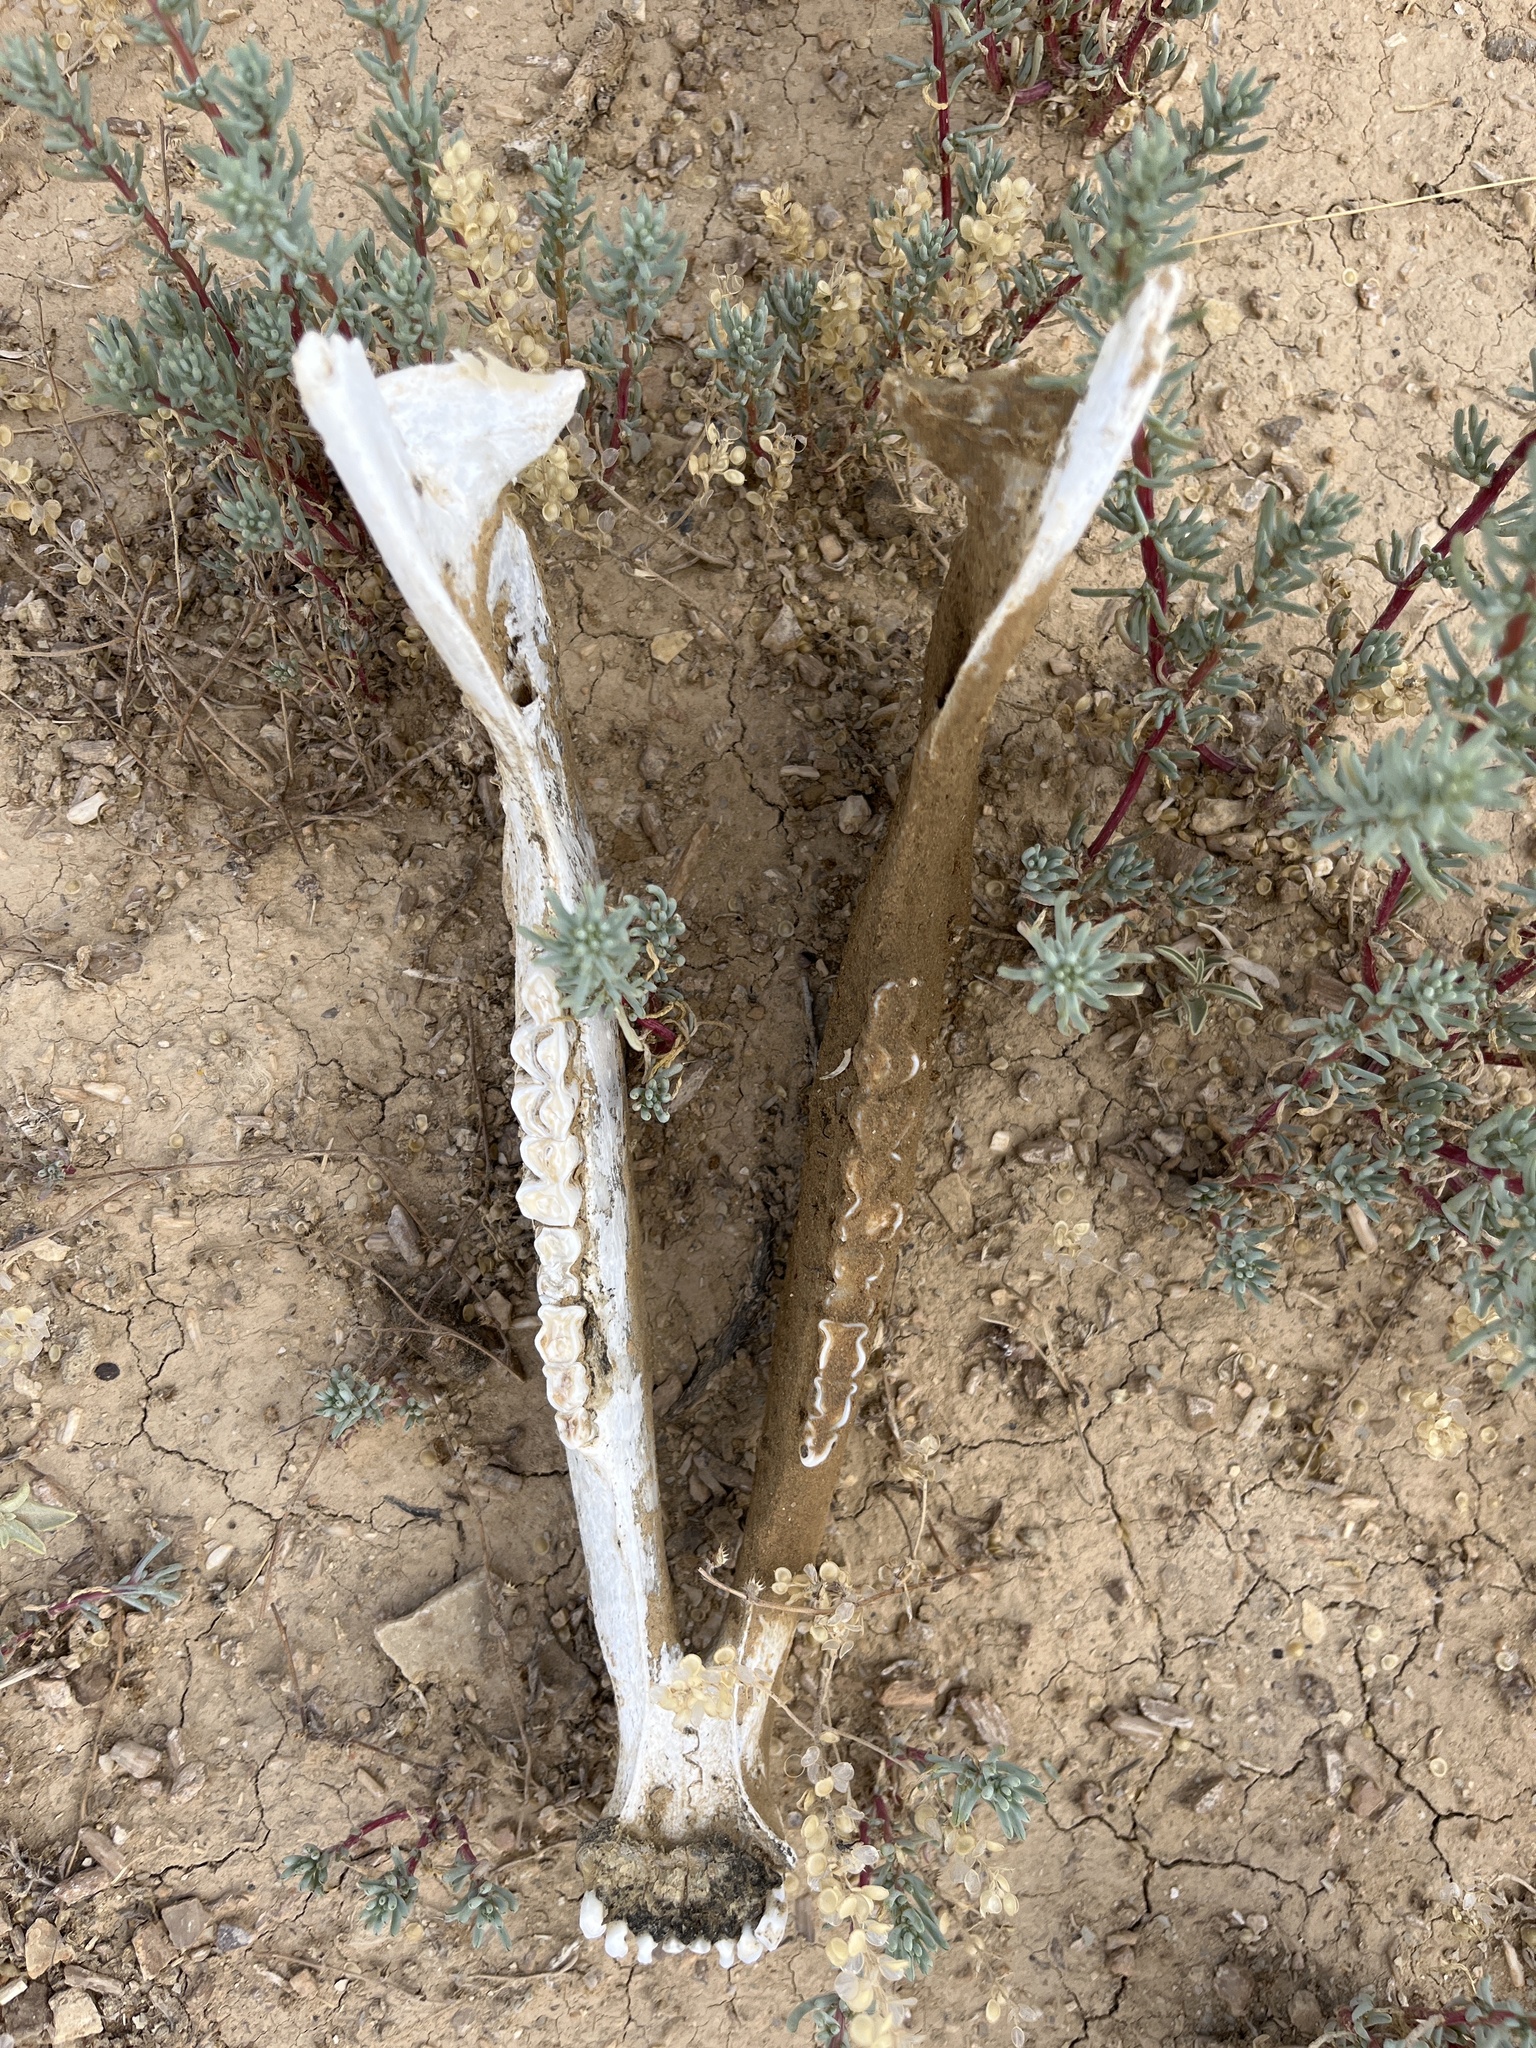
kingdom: Animalia
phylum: Chordata
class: Mammalia
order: Artiodactyla
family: Antilocapridae
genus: Antilocapra
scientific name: Antilocapra americana
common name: Pronghorn
